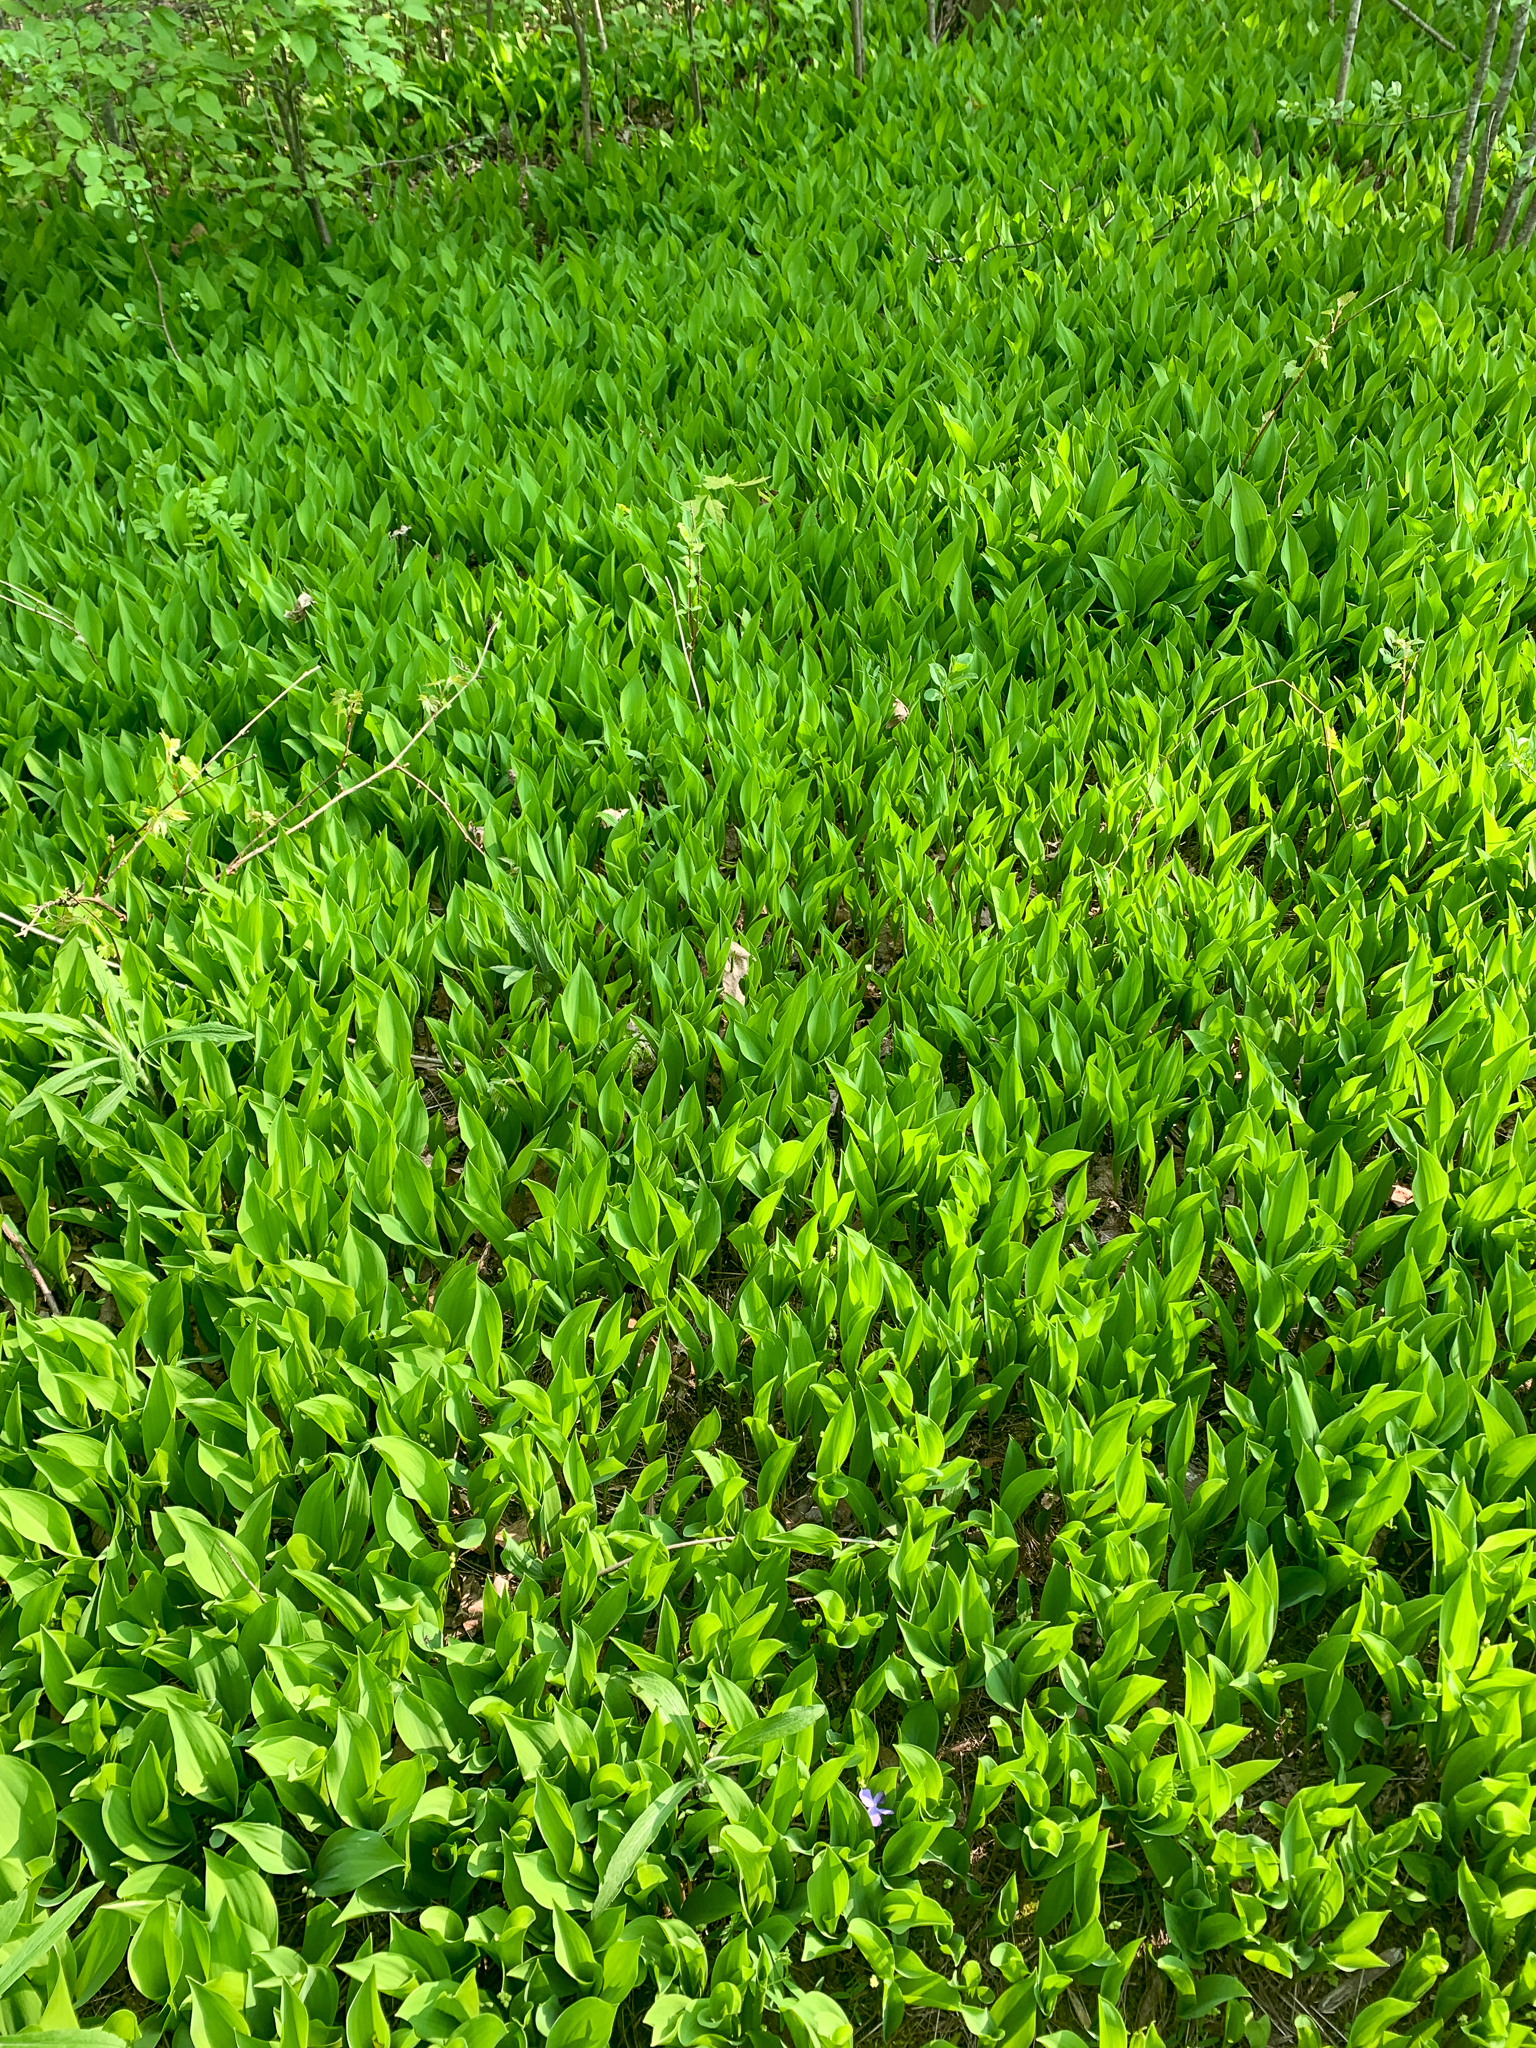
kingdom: Plantae
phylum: Tracheophyta
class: Liliopsida
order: Asparagales
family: Asparagaceae
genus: Convallaria
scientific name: Convallaria majalis
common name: Lily-of-the-valley
